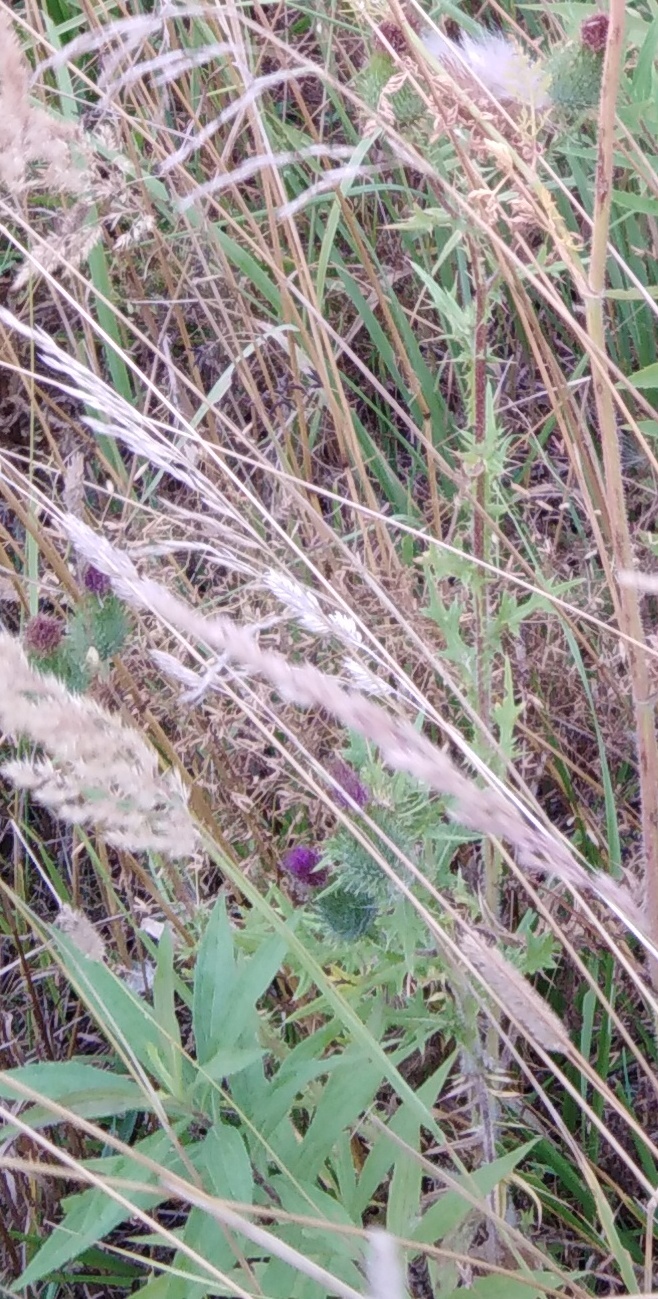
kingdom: Plantae
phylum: Tracheophyta
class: Magnoliopsida
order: Asterales
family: Asteraceae
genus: Cirsium
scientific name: Cirsium vulgare
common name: Bull thistle
